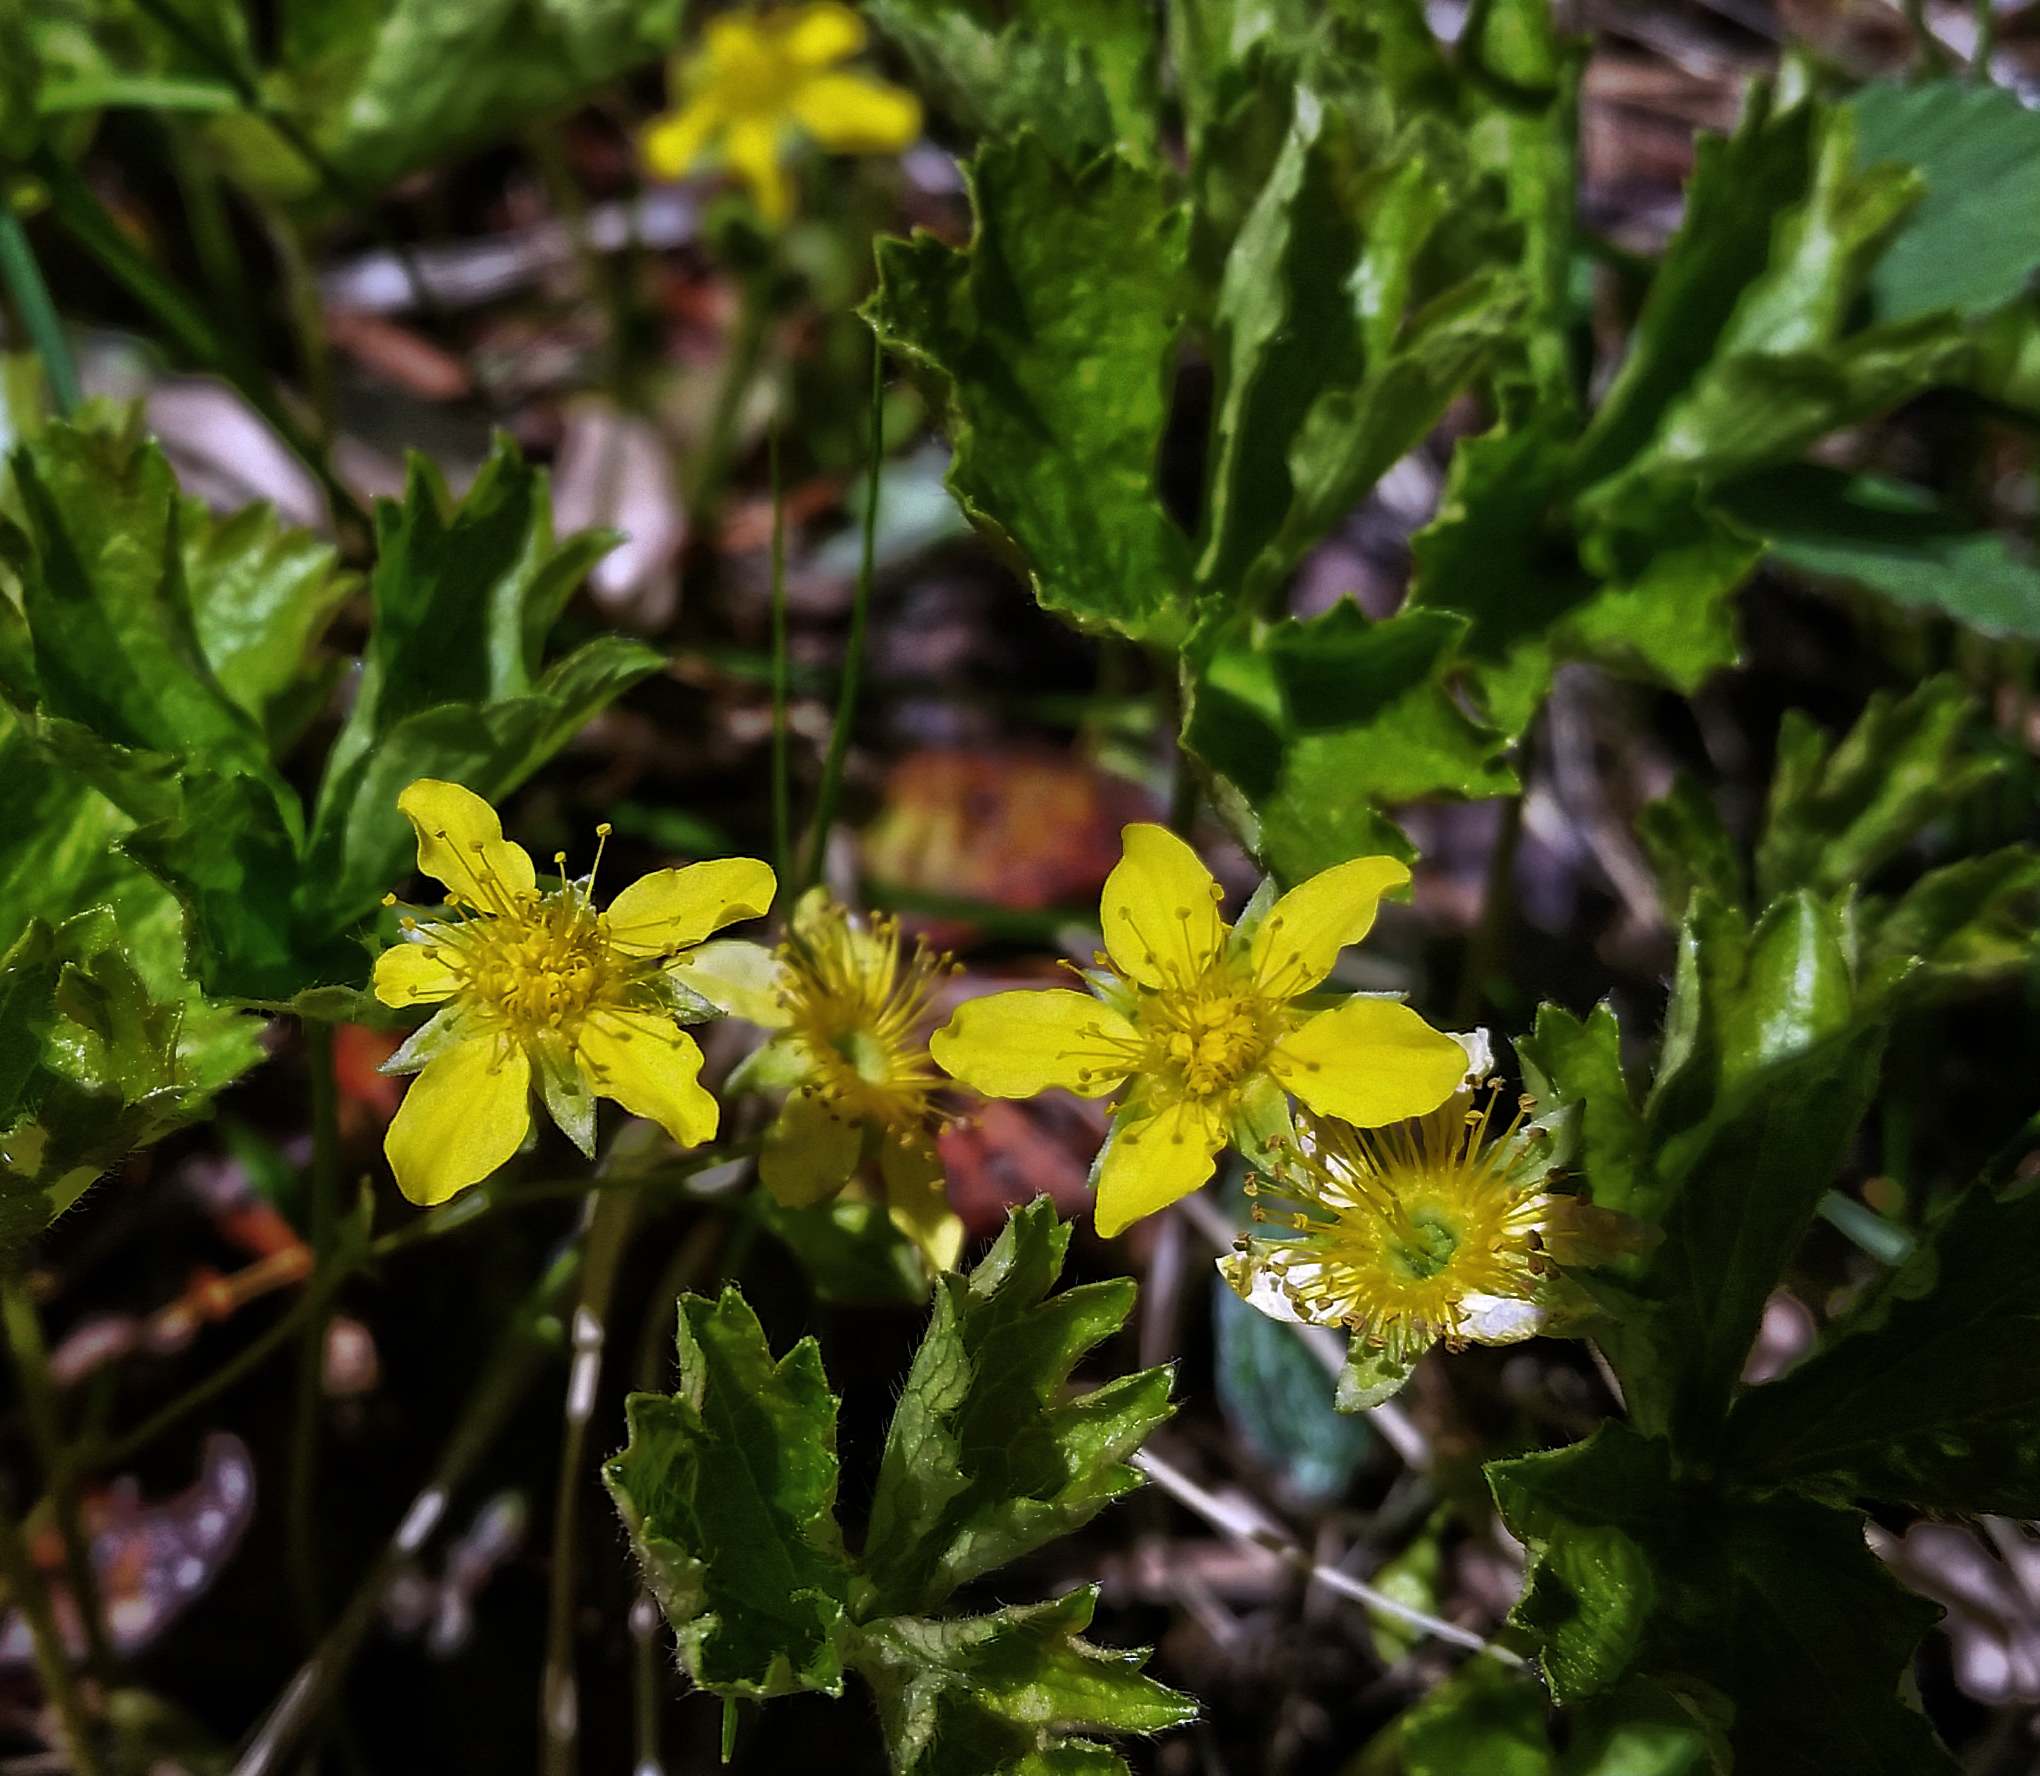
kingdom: Plantae
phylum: Tracheophyta
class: Magnoliopsida
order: Rosales
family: Rosaceae
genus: Geum
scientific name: Geum fragarioides
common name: Appalachian barren strawberry
